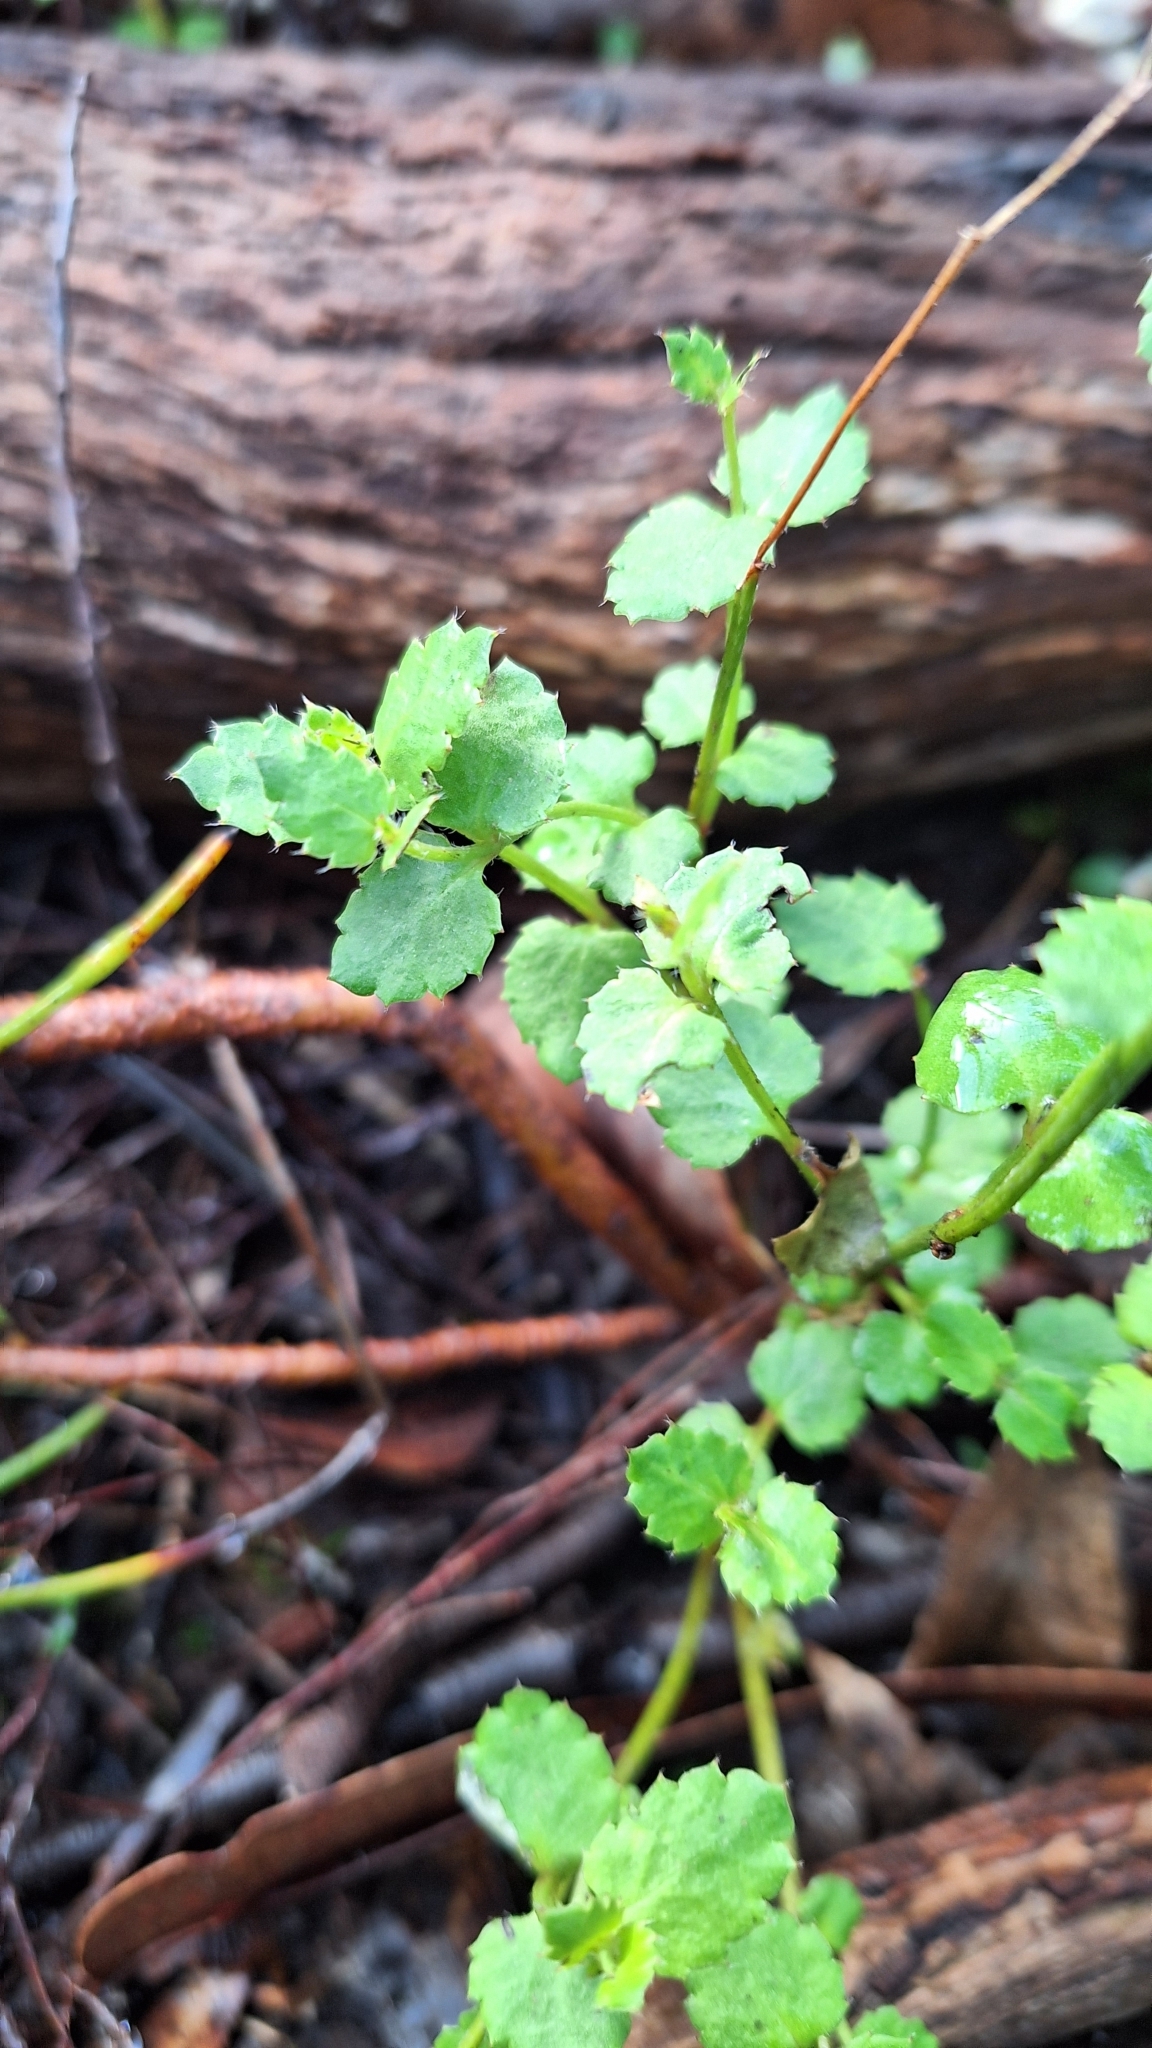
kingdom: Plantae
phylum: Tracheophyta
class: Magnoliopsida
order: Saxifragales
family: Haloragaceae
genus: Gonocarpus
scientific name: Gonocarpus mezianus
